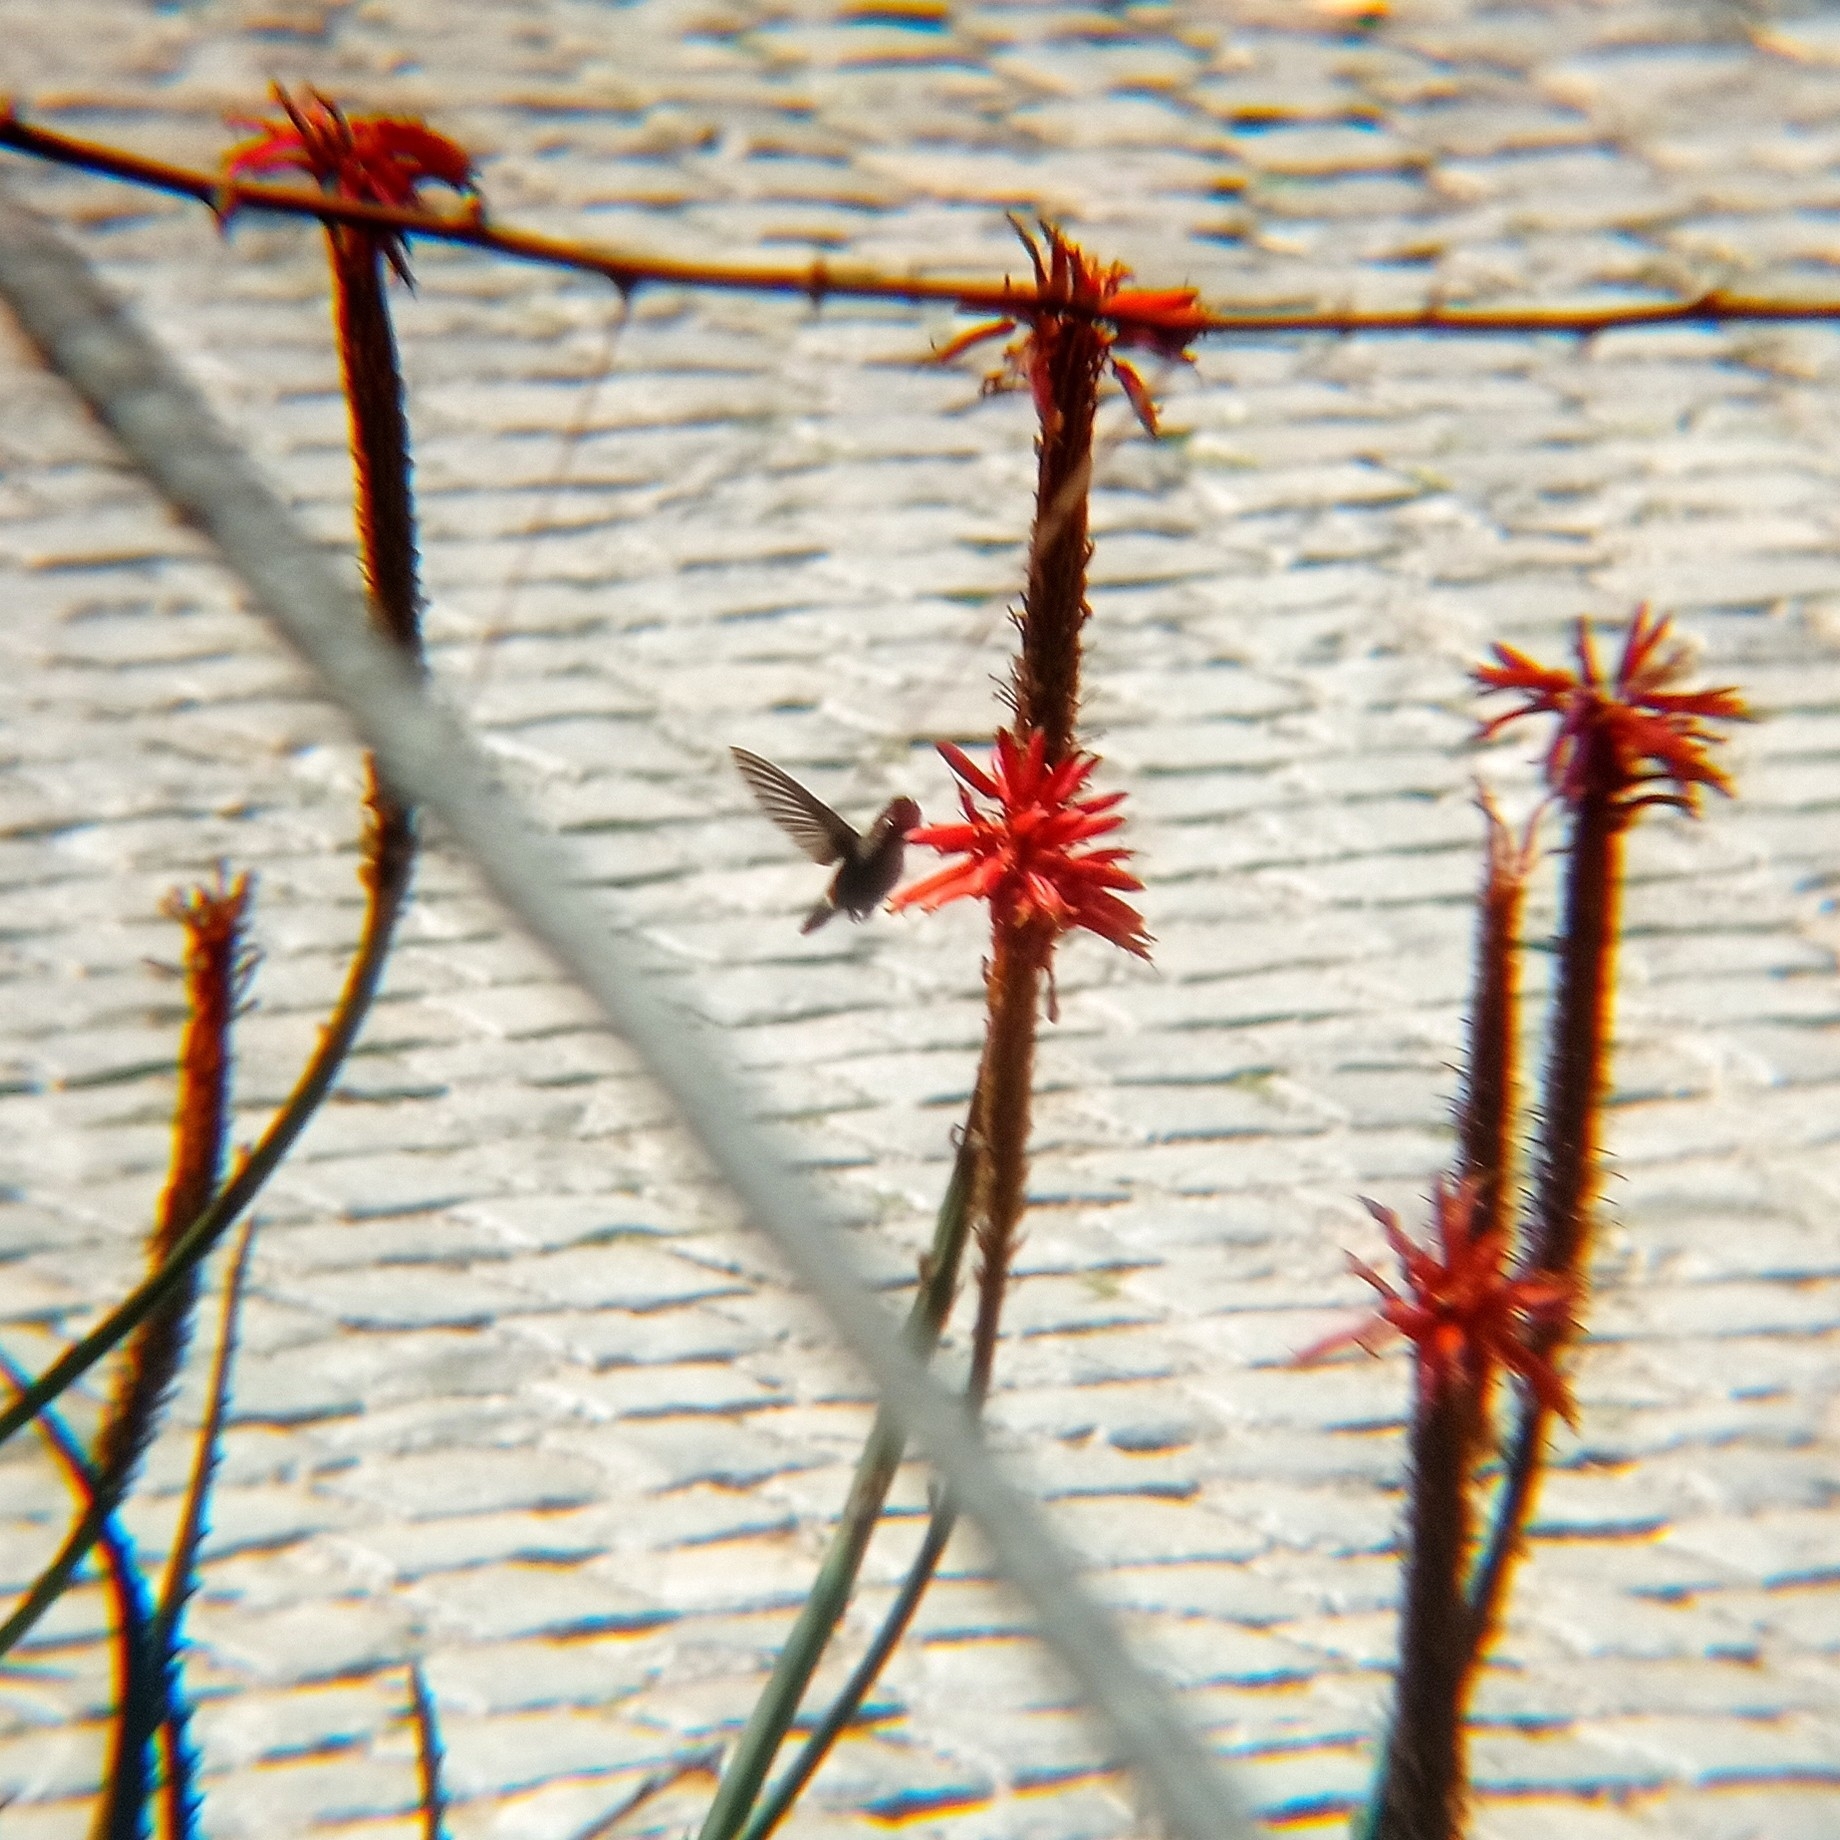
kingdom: Animalia
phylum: Chordata
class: Aves
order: Apodiformes
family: Trochilidae
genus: Sephanoides
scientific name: Sephanoides sephaniodes
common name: Green-backed firecrown
